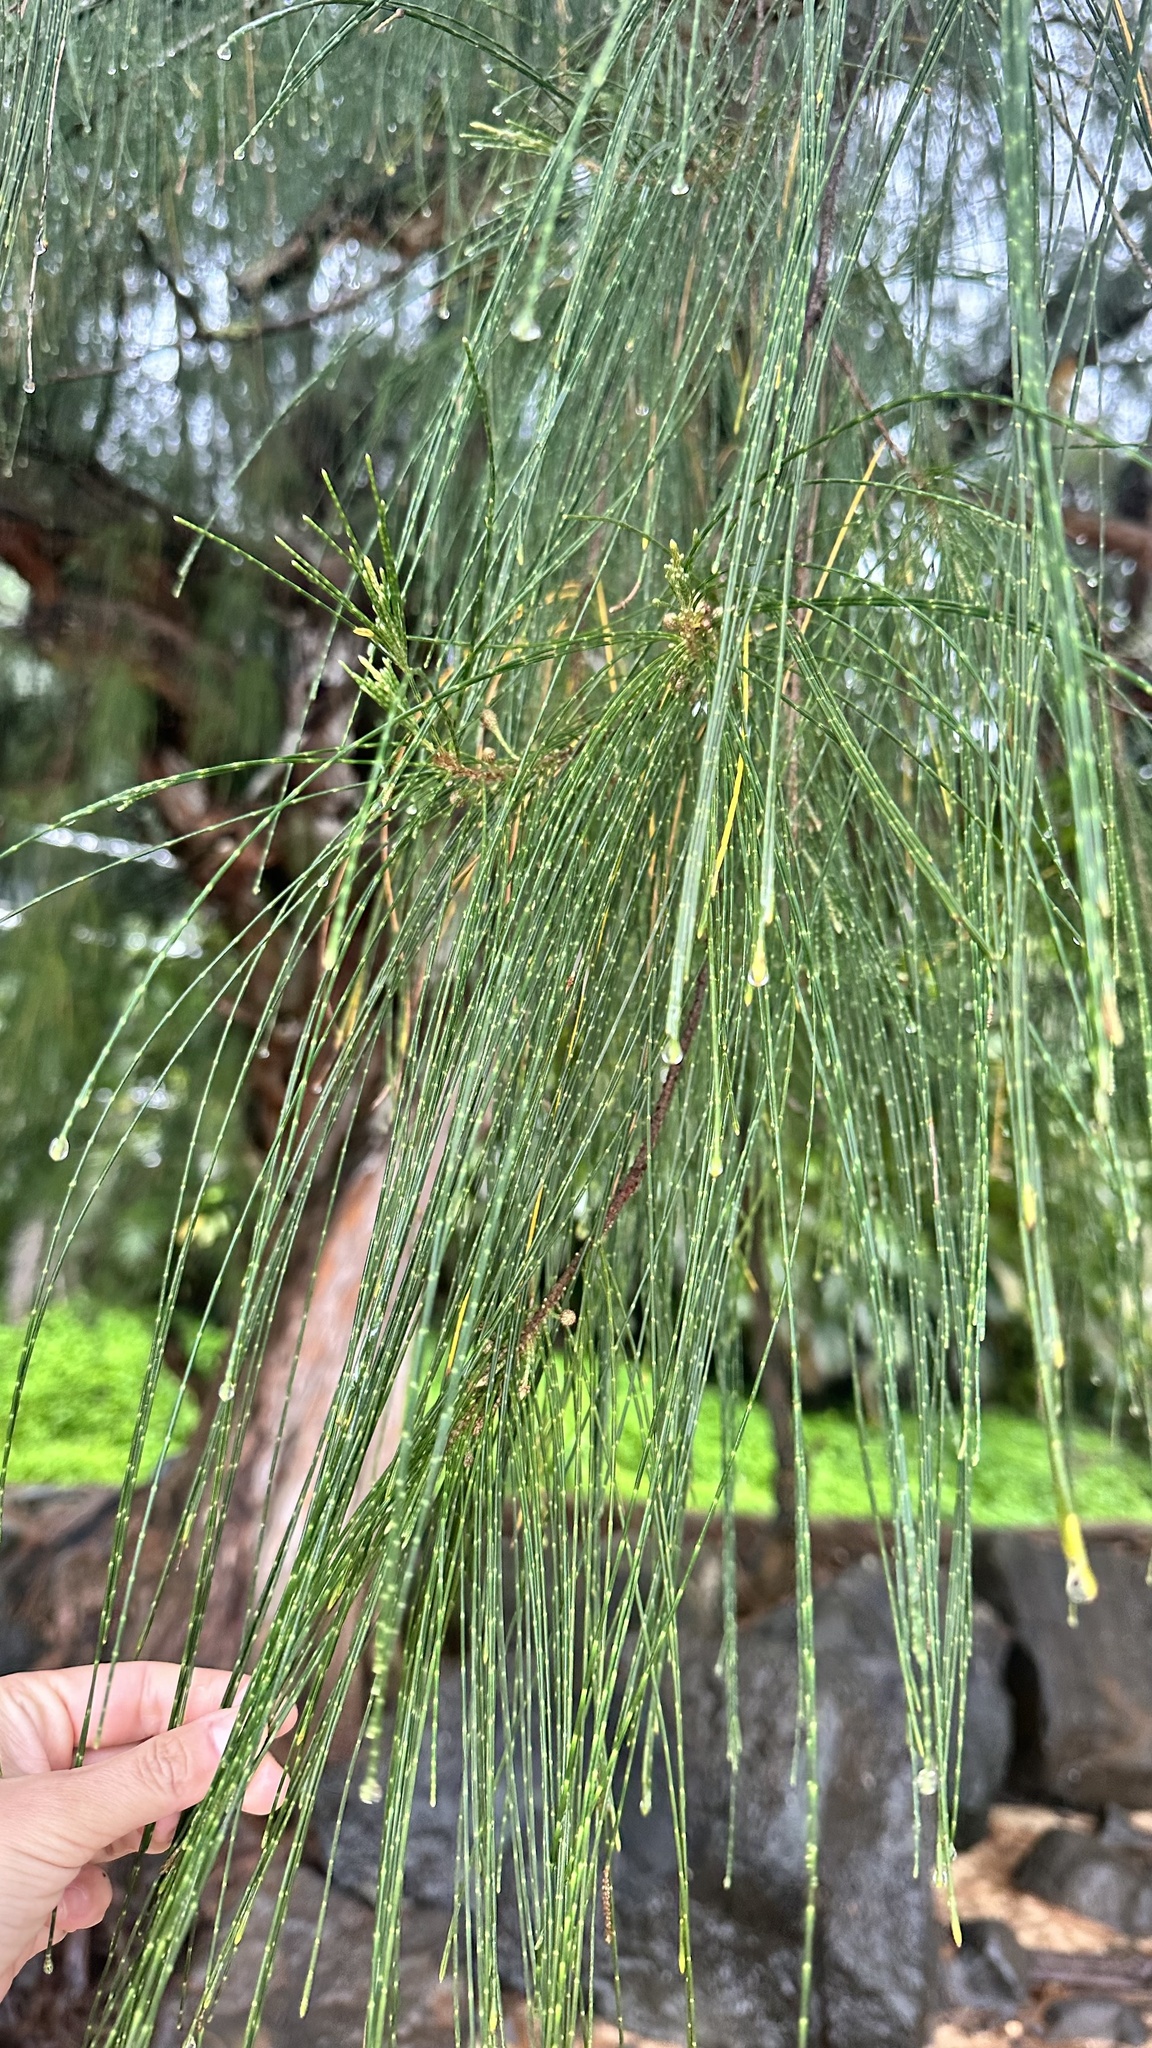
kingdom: Plantae
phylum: Tracheophyta
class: Magnoliopsida
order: Fagales
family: Casuarinaceae
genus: Casuarina
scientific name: Casuarina equisetifolia
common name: Beach sheoak
